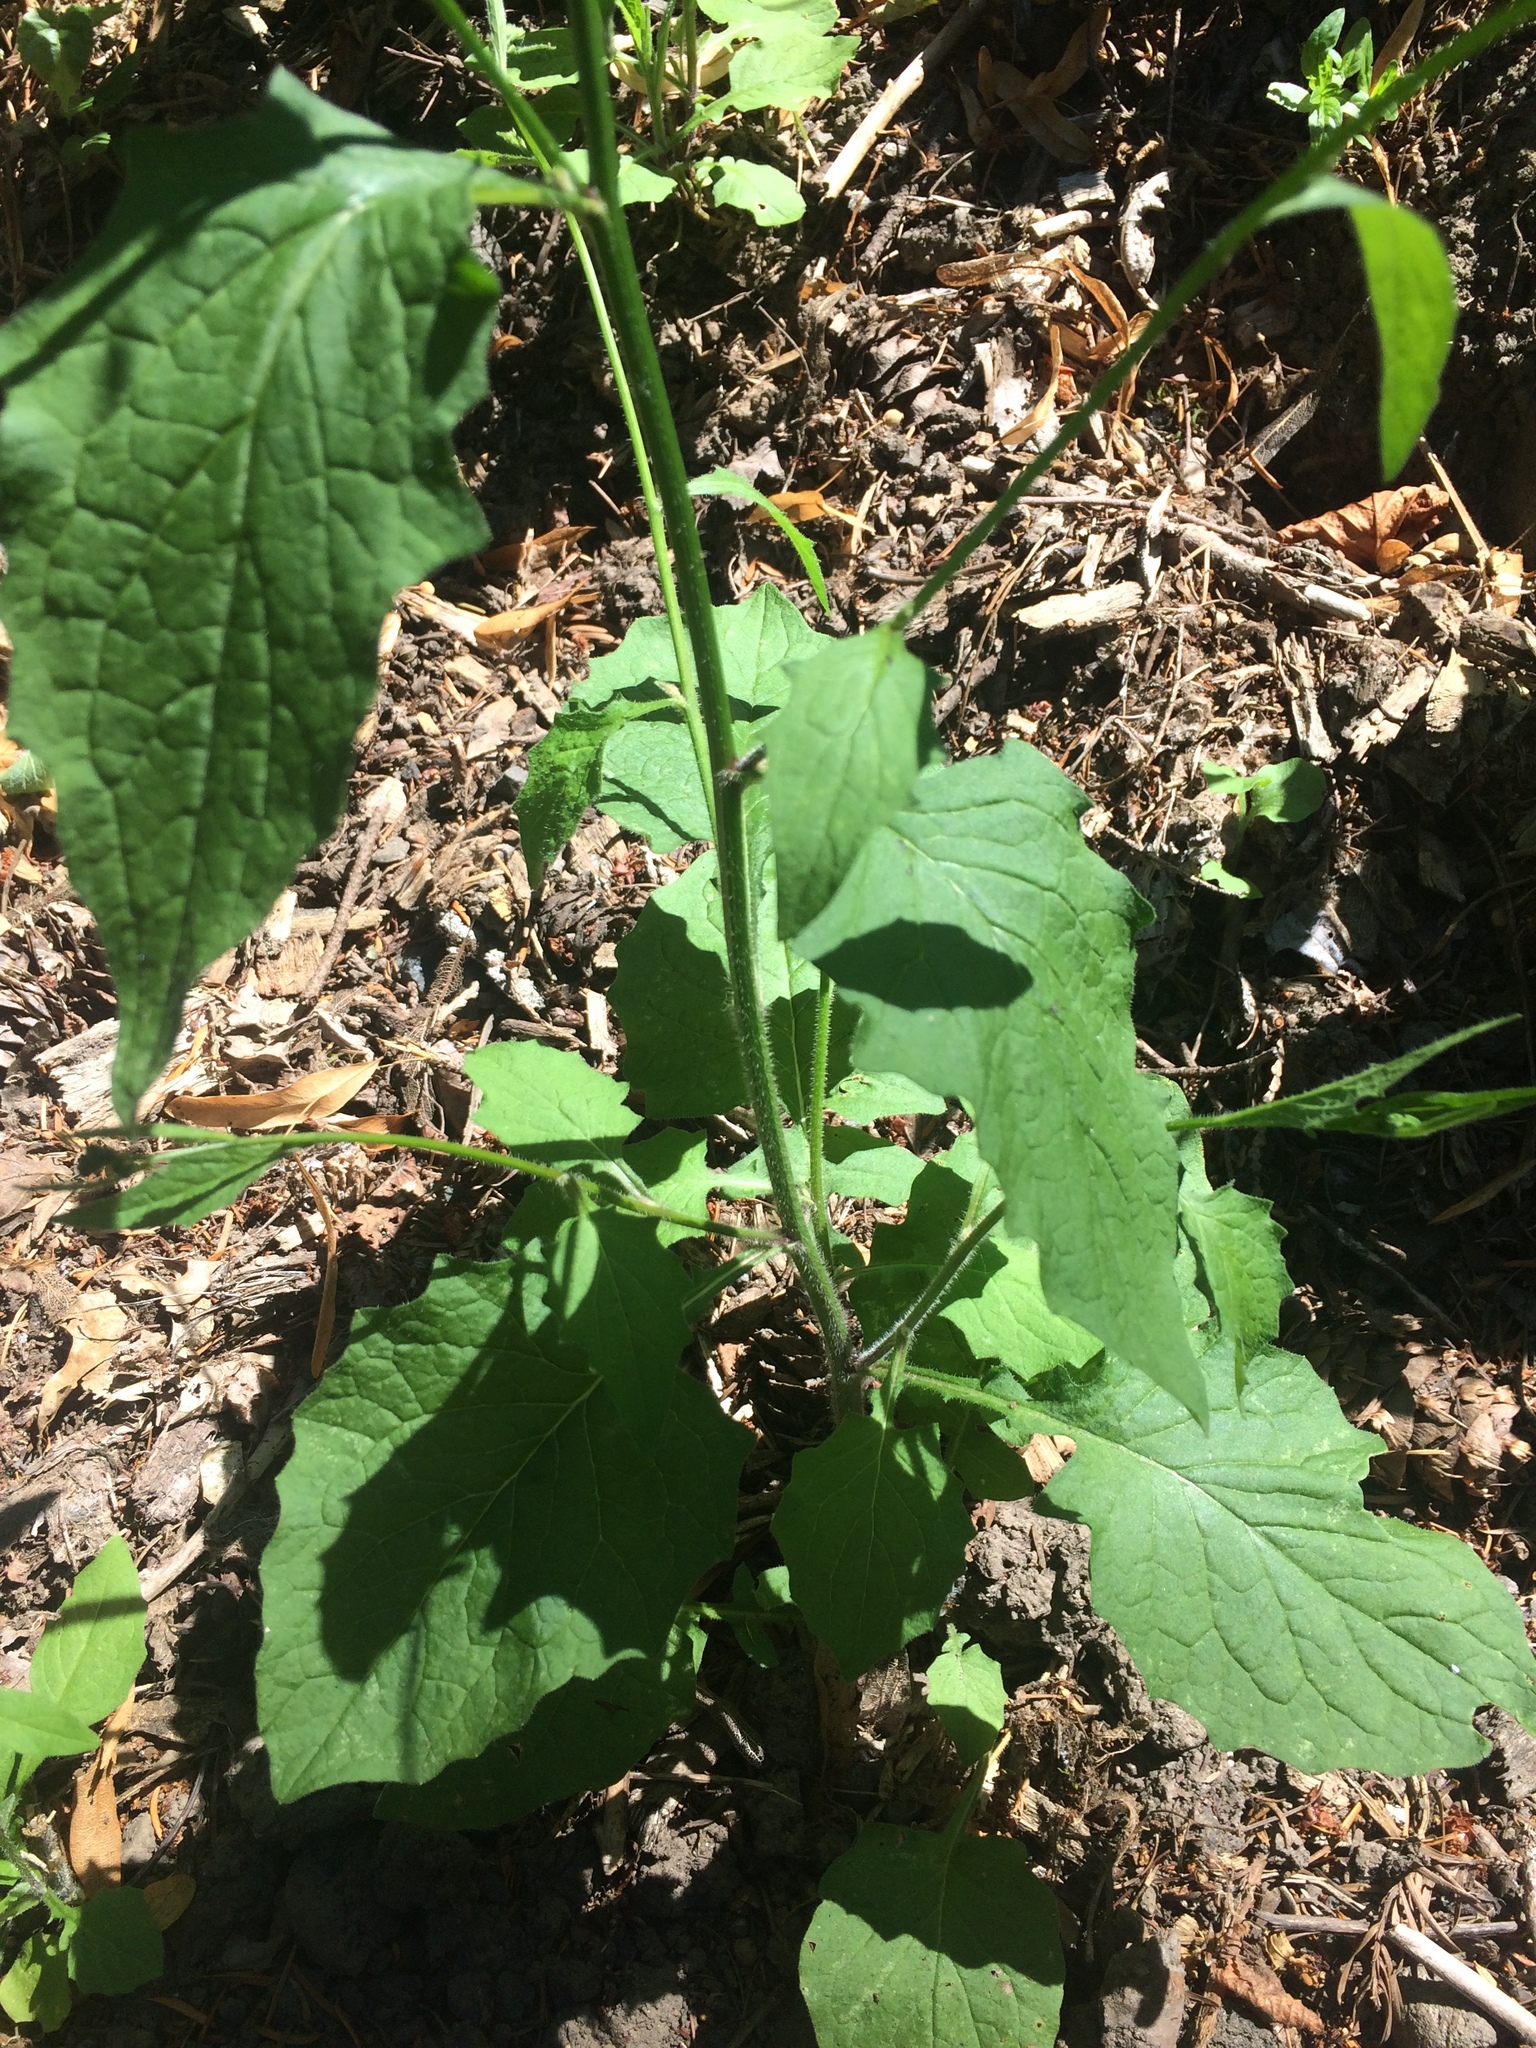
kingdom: Plantae
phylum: Tracheophyta
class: Magnoliopsida
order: Asterales
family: Asteraceae
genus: Lapsana
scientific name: Lapsana communis
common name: Nipplewort
